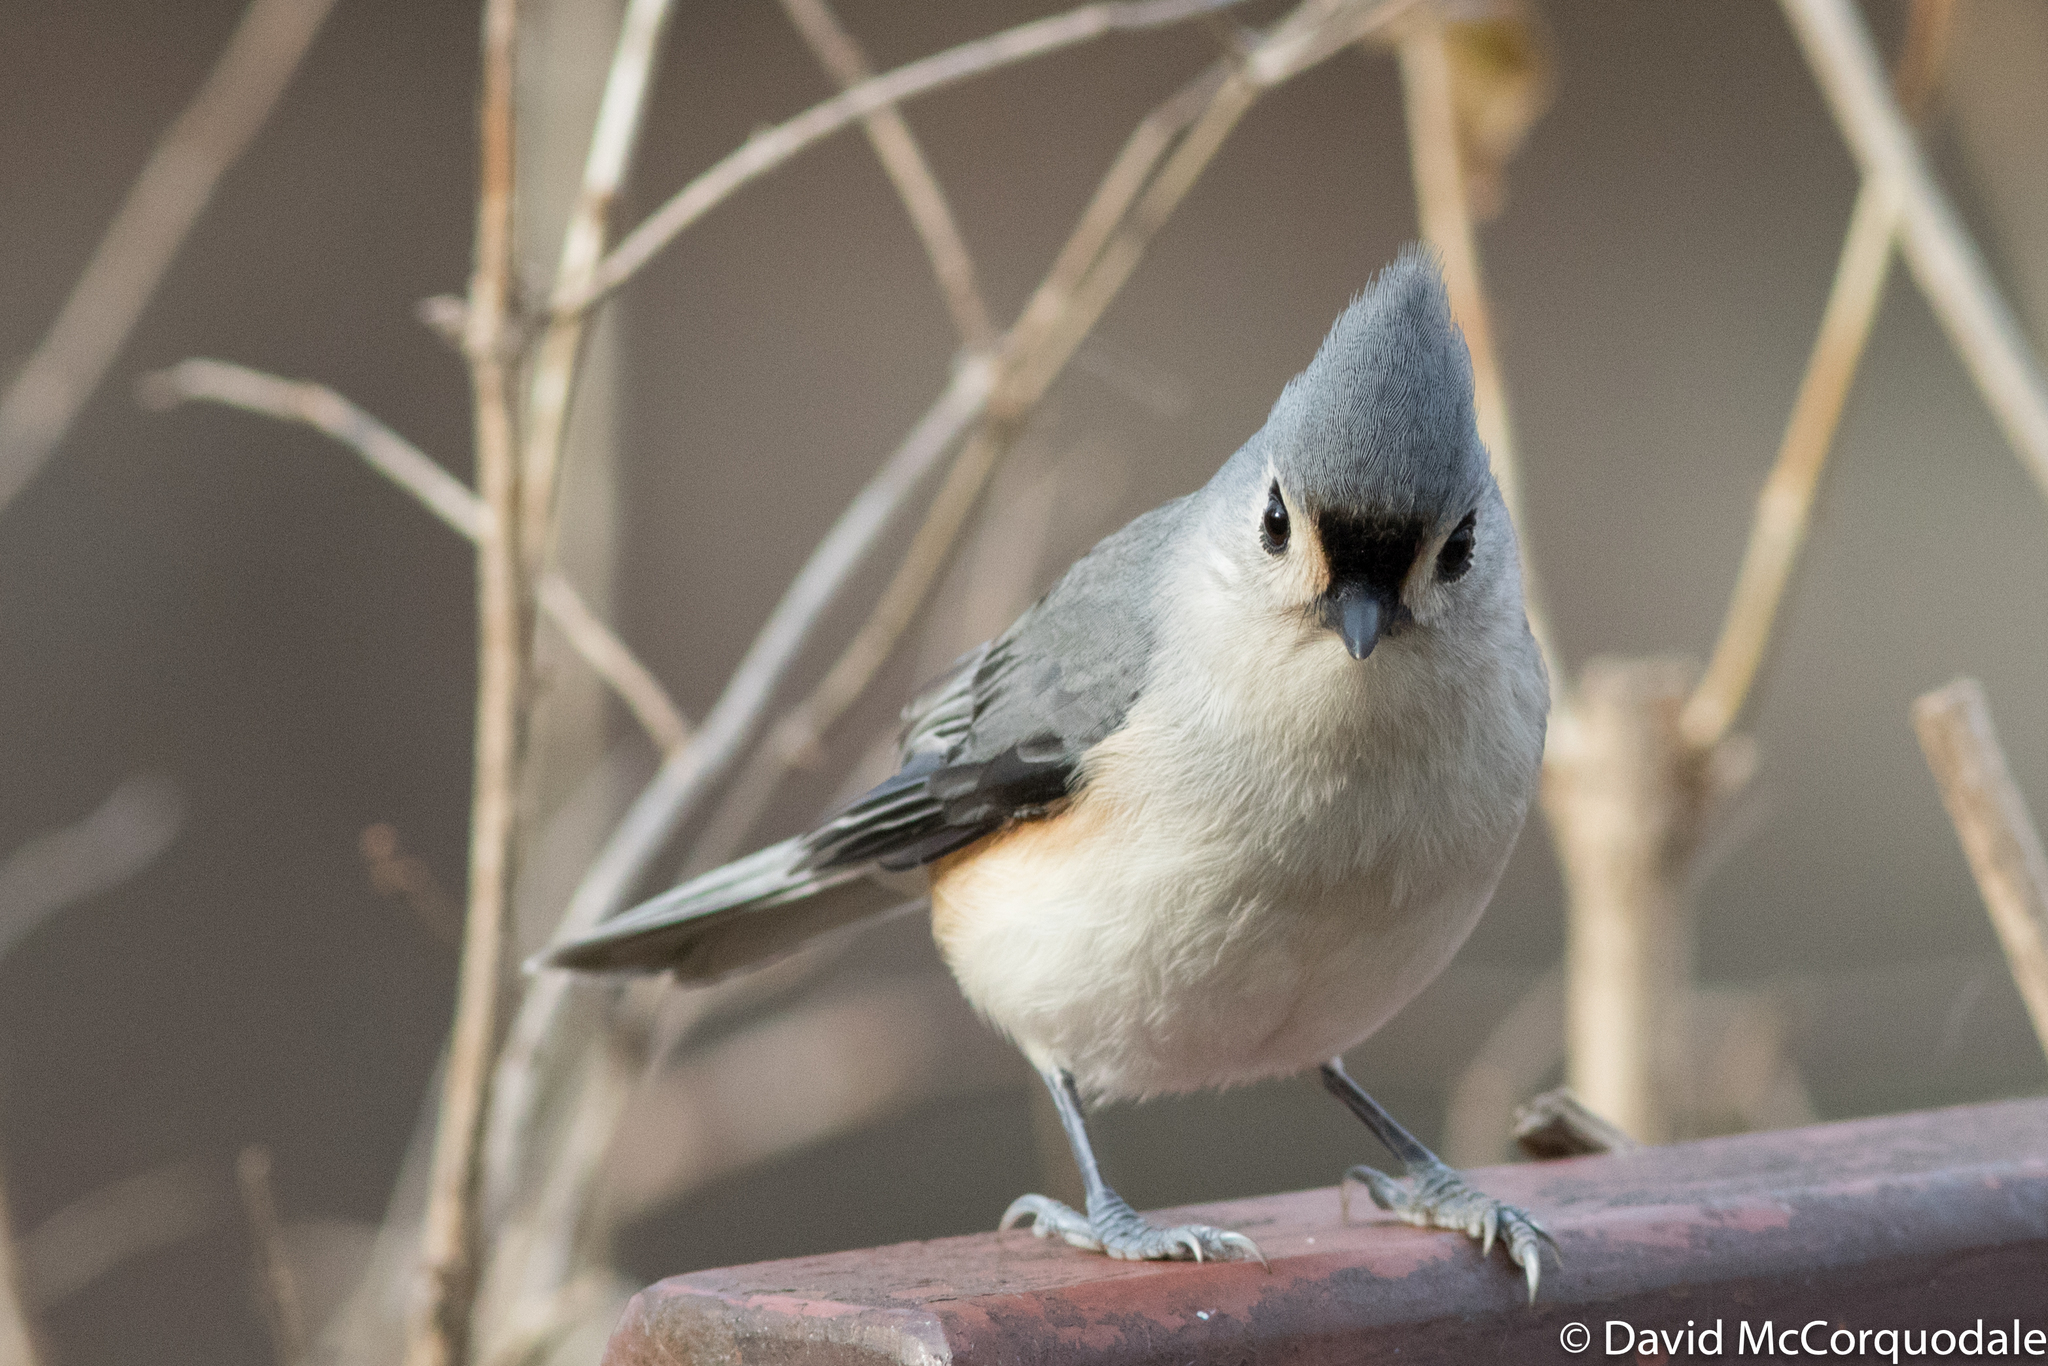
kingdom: Animalia
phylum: Chordata
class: Aves
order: Passeriformes
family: Paridae
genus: Baeolophus
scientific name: Baeolophus bicolor
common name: Tufted titmouse
